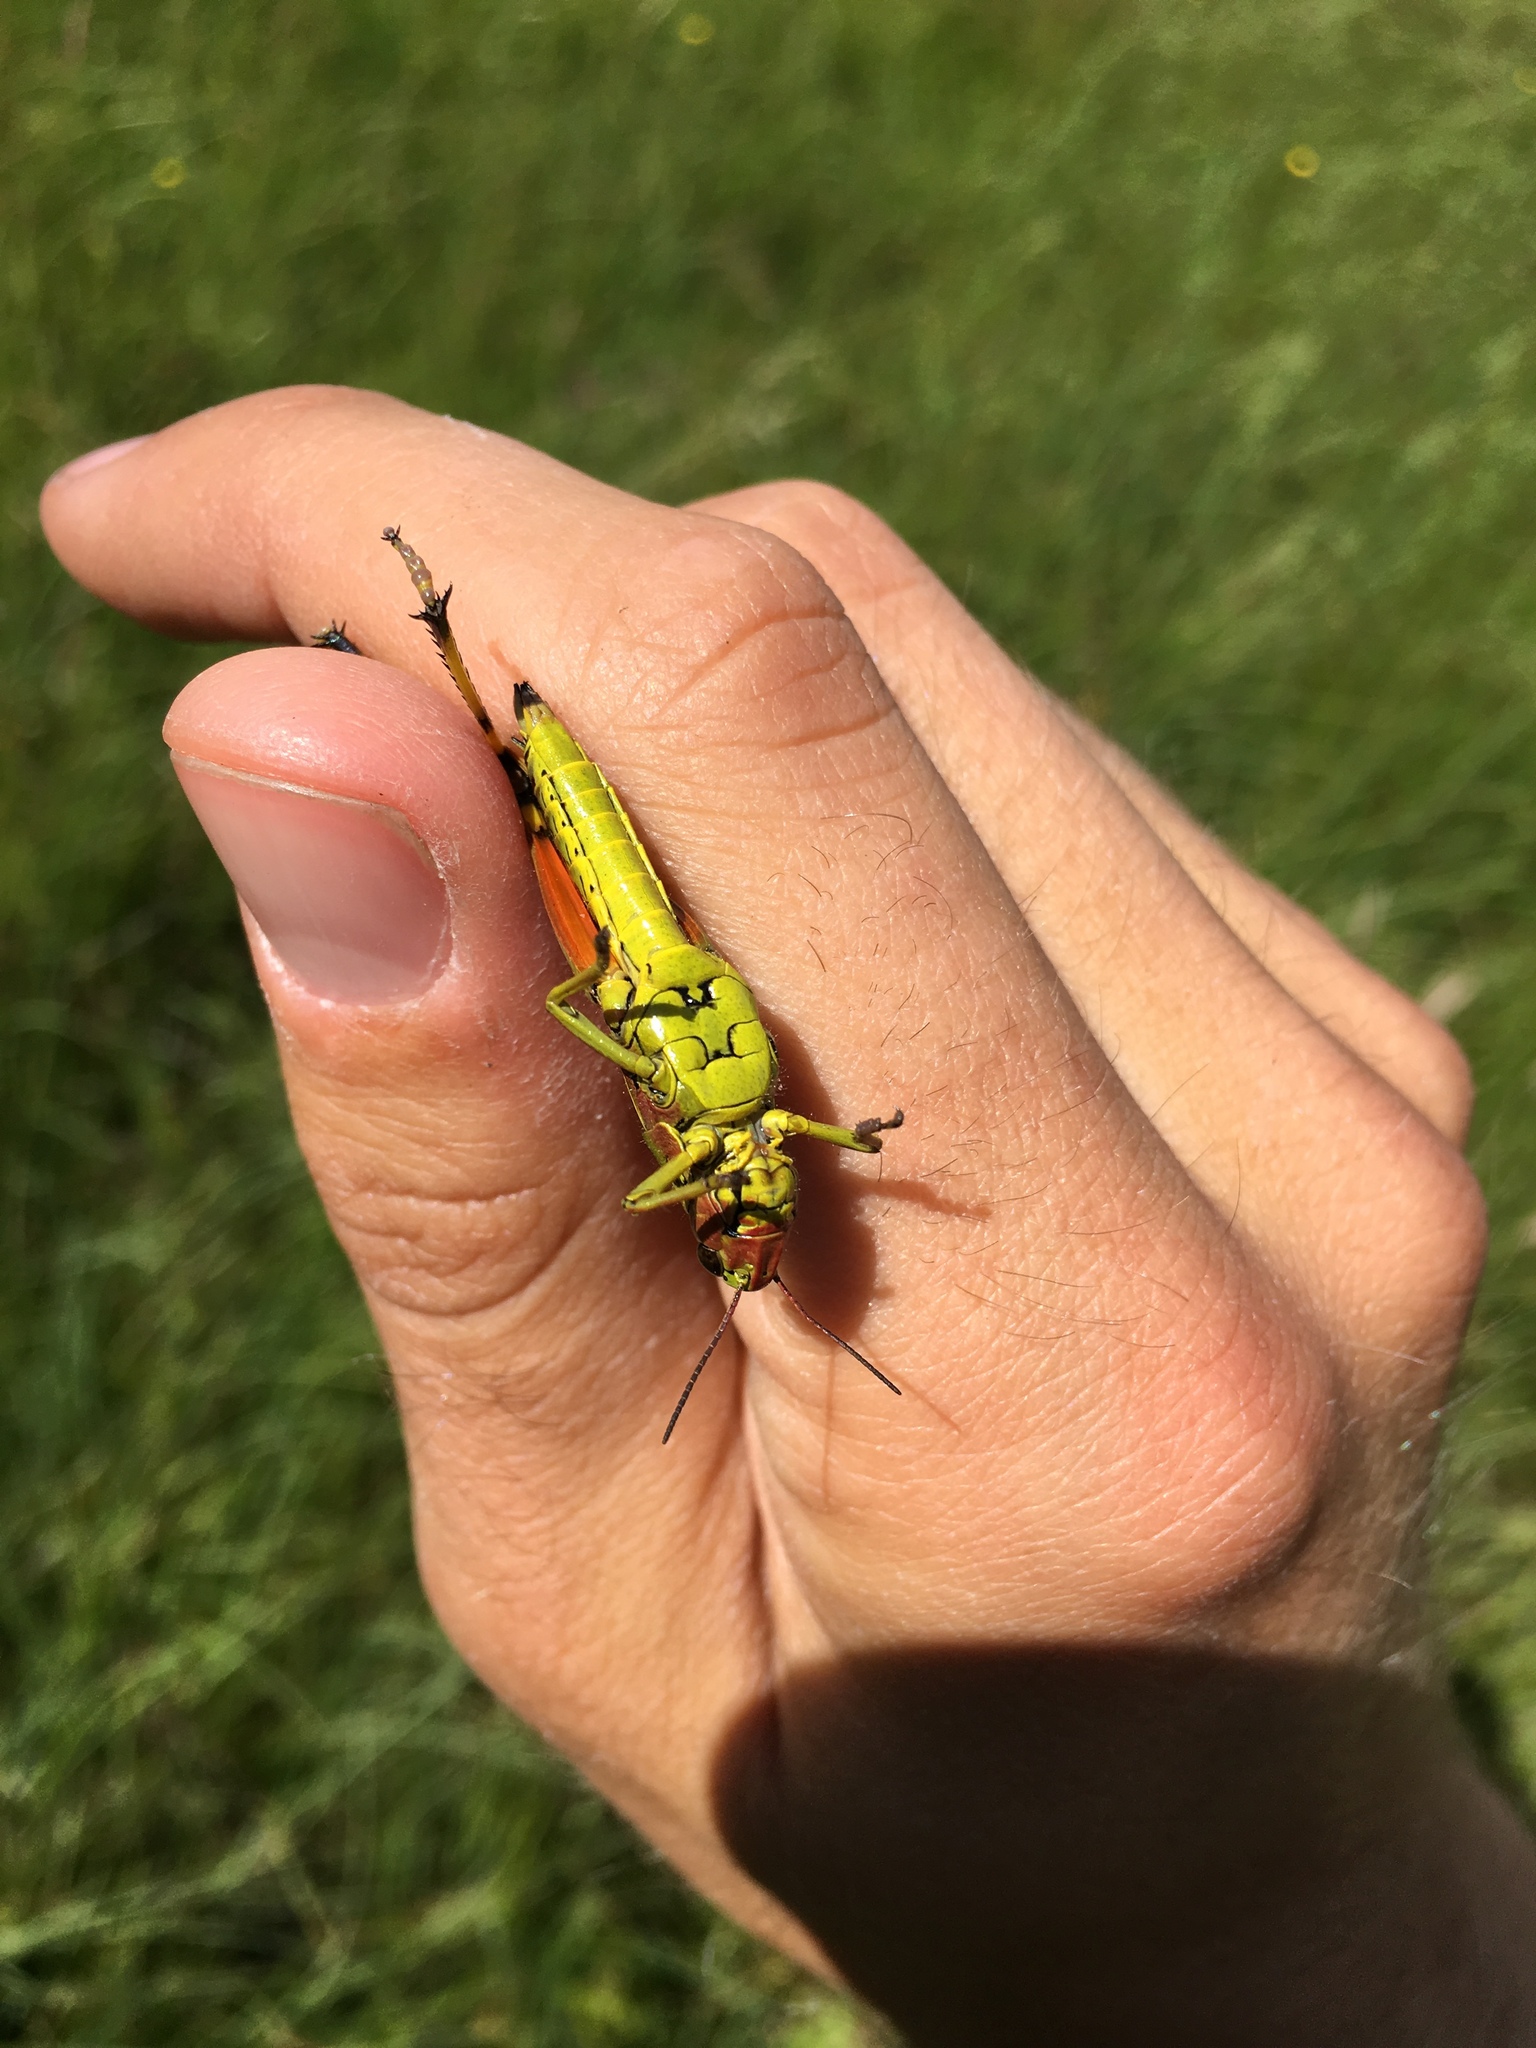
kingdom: Animalia
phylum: Arthropoda
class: Insecta
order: Orthoptera
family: Acrididae
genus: Stethophyma
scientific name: Stethophyma grossum
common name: Large marsh grasshopper
